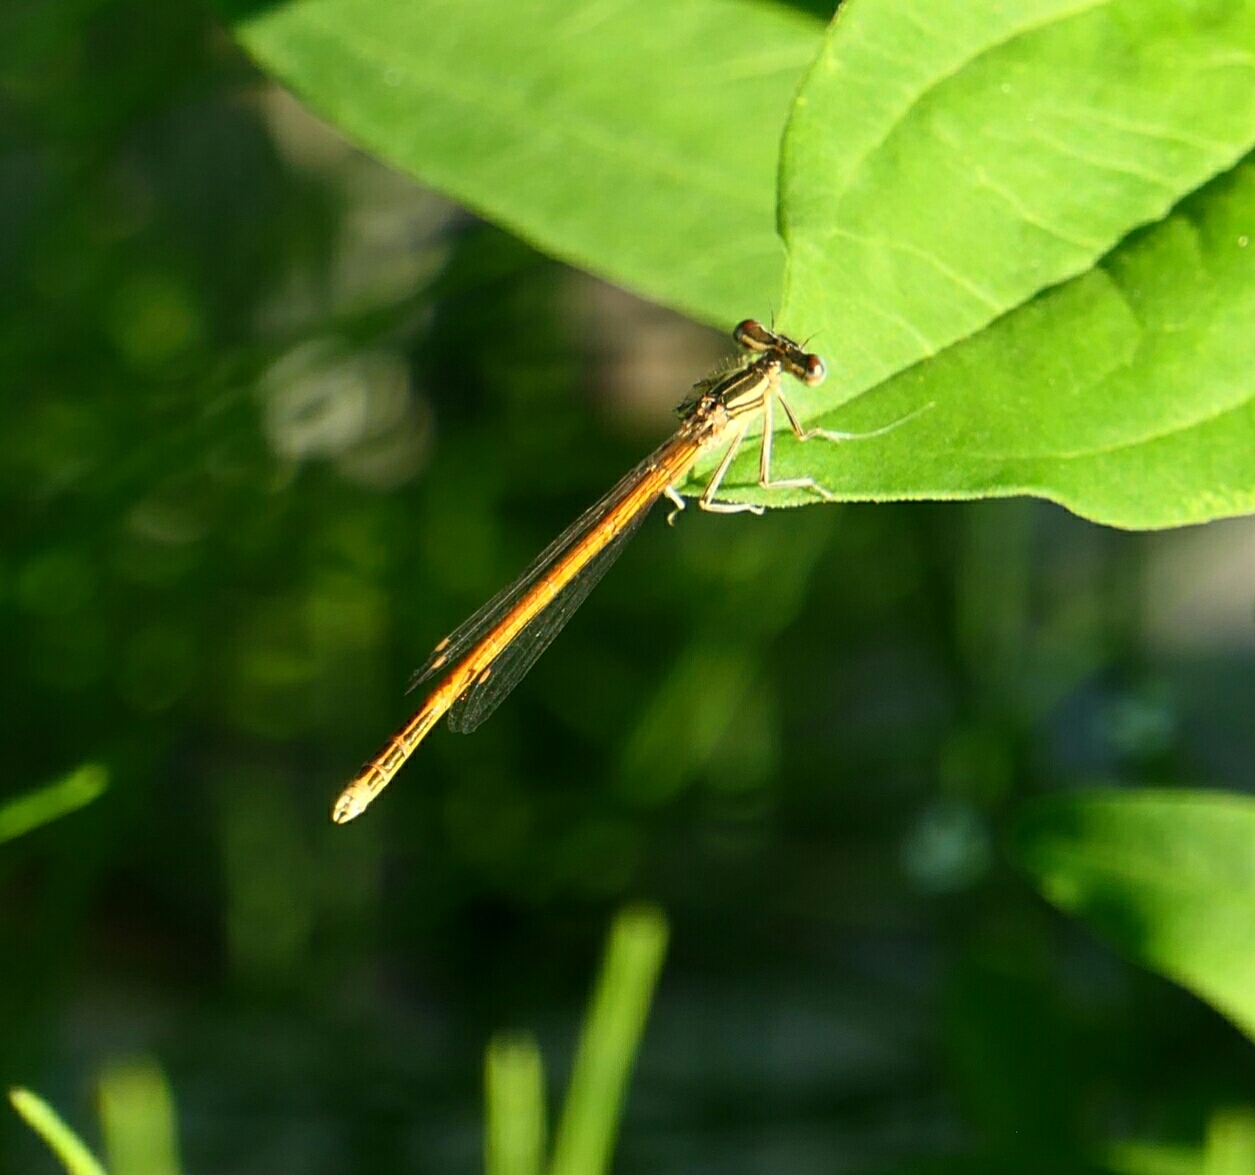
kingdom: Animalia
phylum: Arthropoda
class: Insecta
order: Odonata
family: Platycnemididae
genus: Platycnemis
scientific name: Platycnemis acutipennis
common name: Orange featherleg
